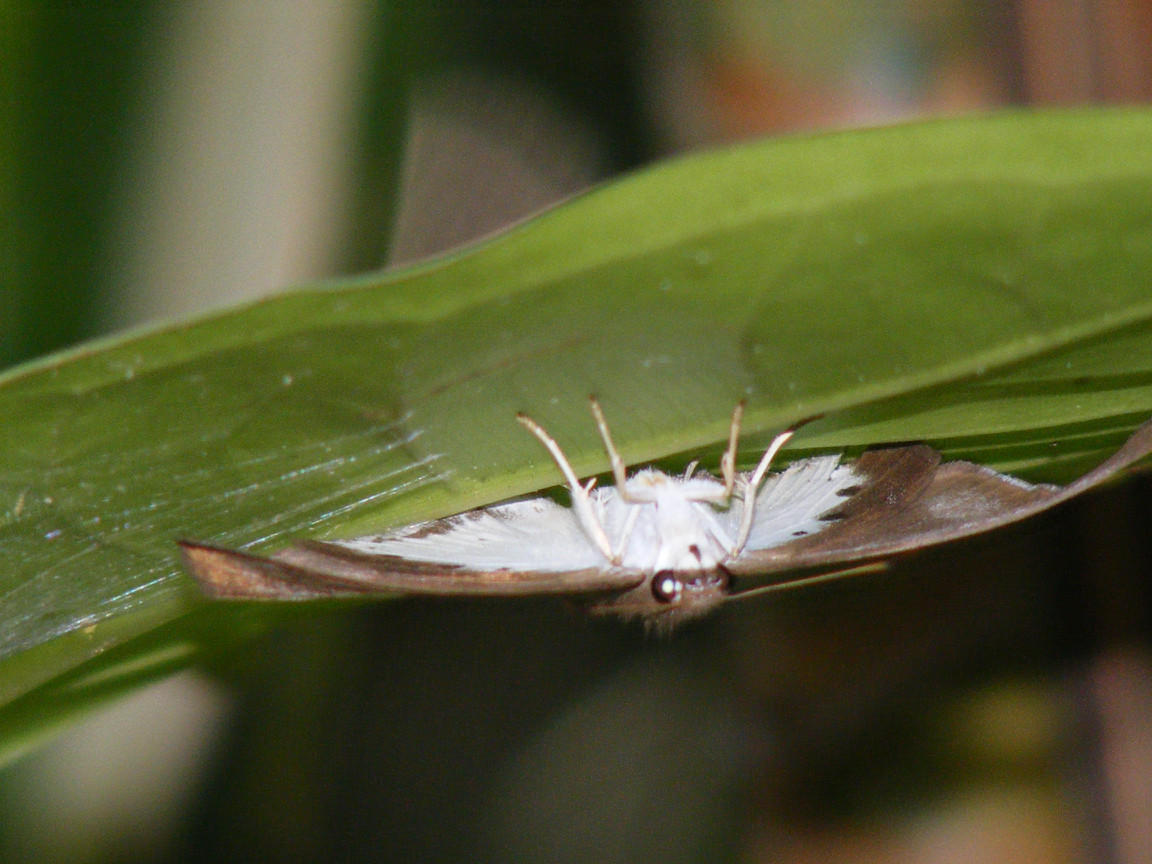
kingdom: Animalia
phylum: Arthropoda
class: Insecta
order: Lepidoptera
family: Hesperiidae
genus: Tagiades
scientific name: Tagiades flesus
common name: Clouded flat
